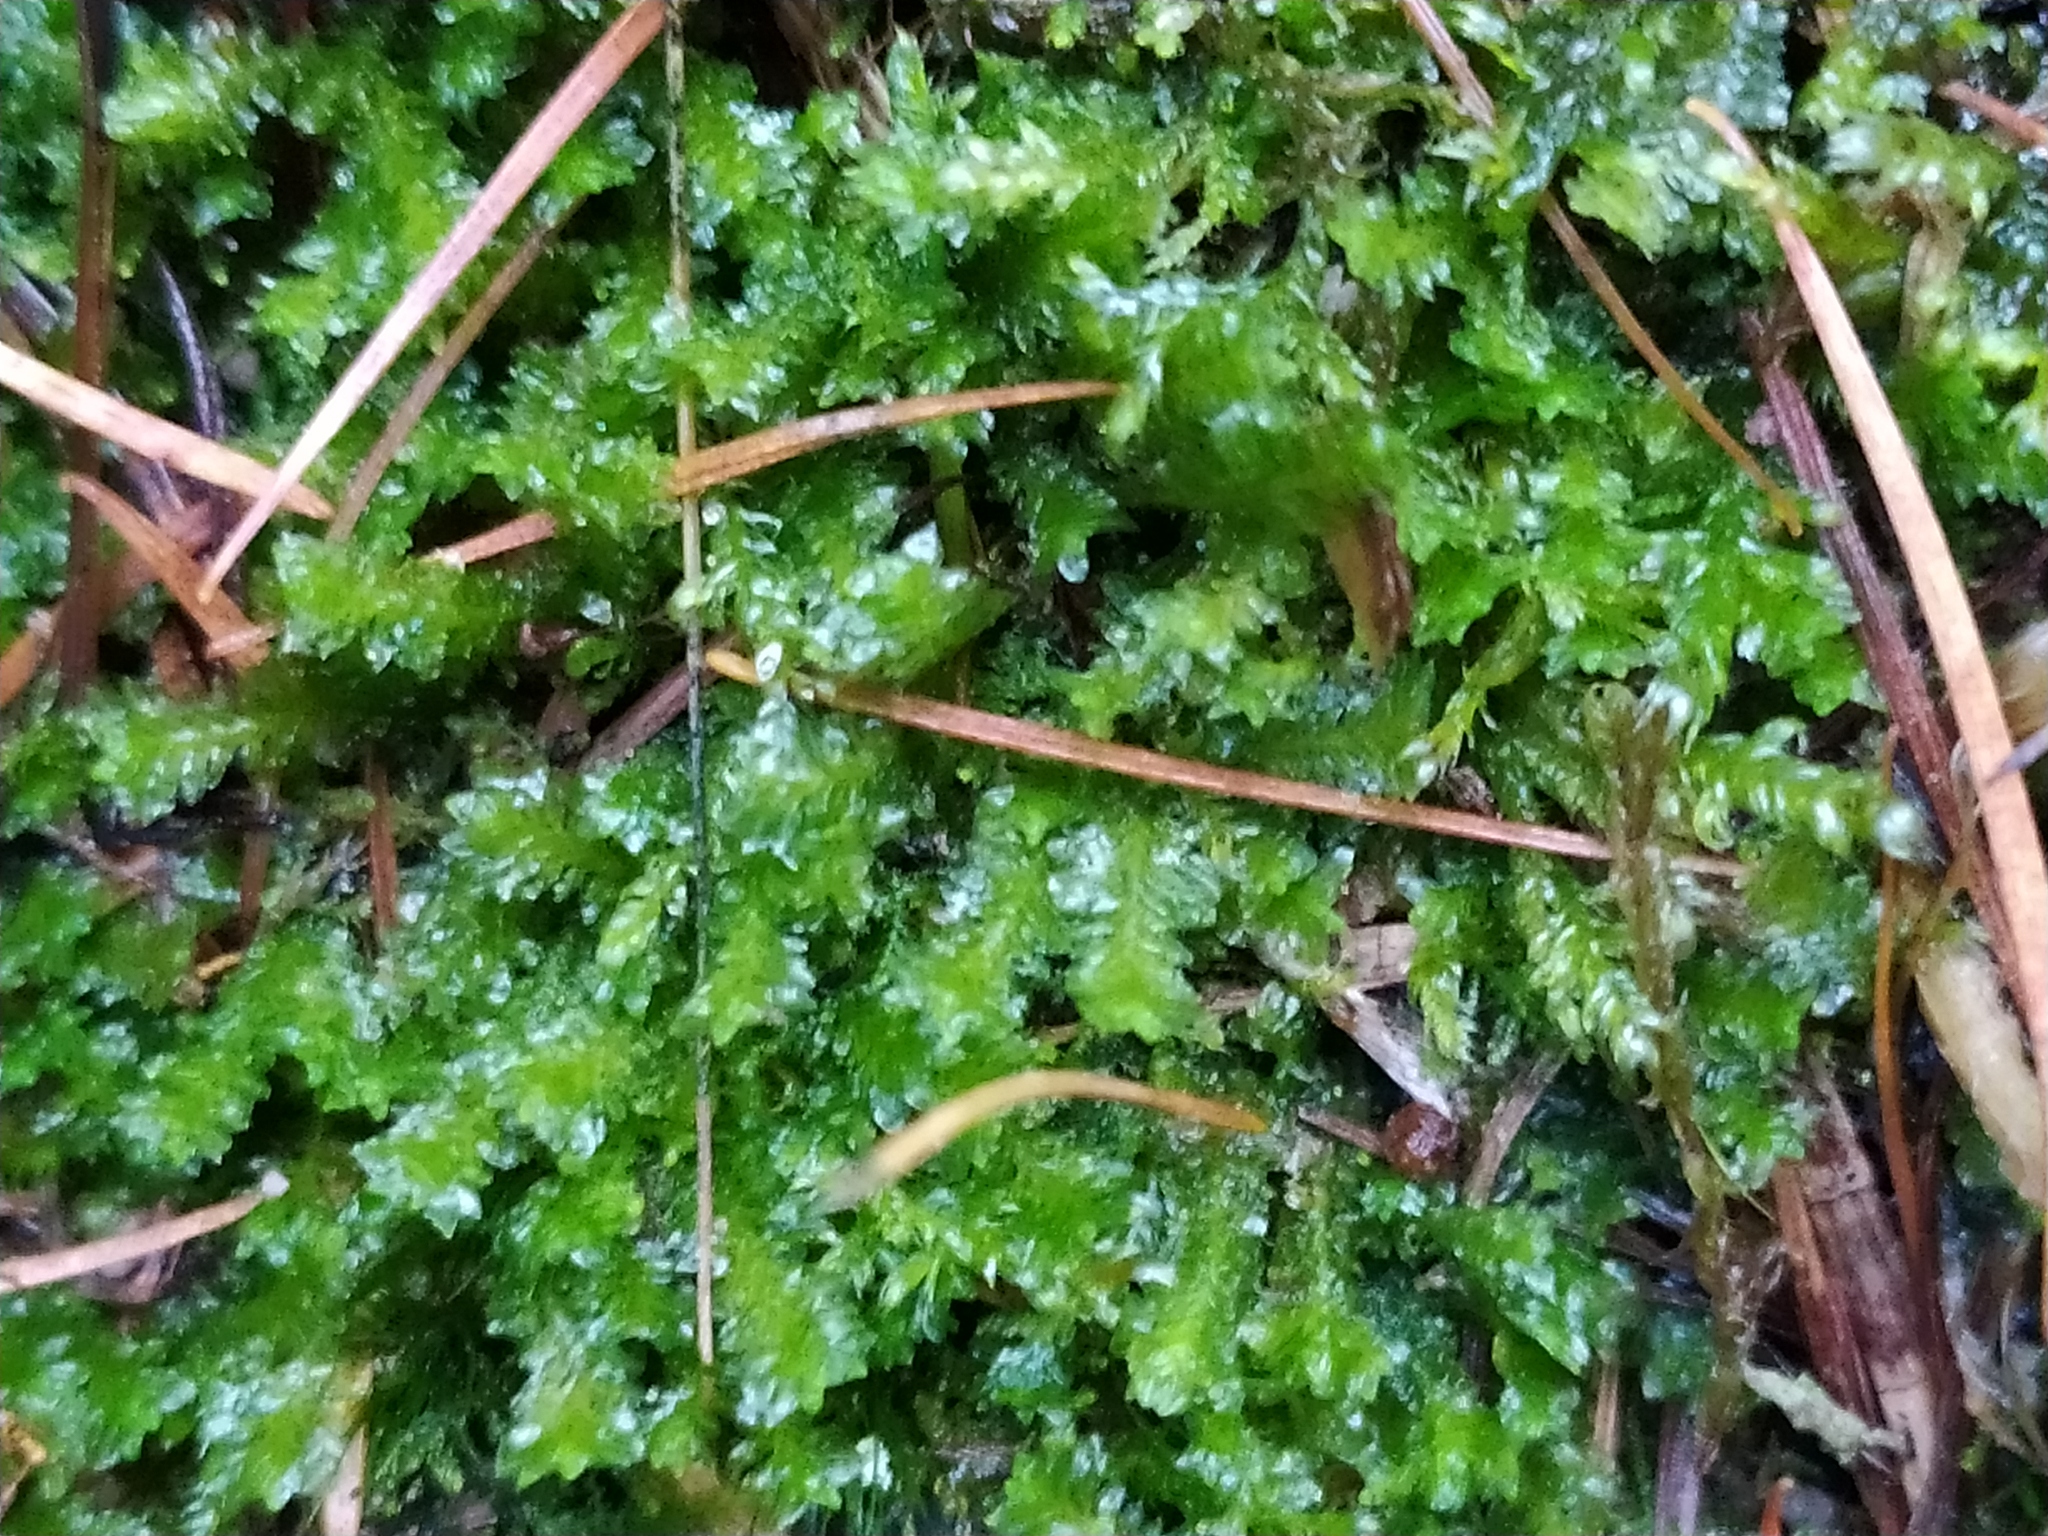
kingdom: Plantae
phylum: Marchantiophyta
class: Jungermanniopsida
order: Jungermanniales
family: Scapaniaceae
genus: Diplophyllum
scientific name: Diplophyllum albicans
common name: White earwort
